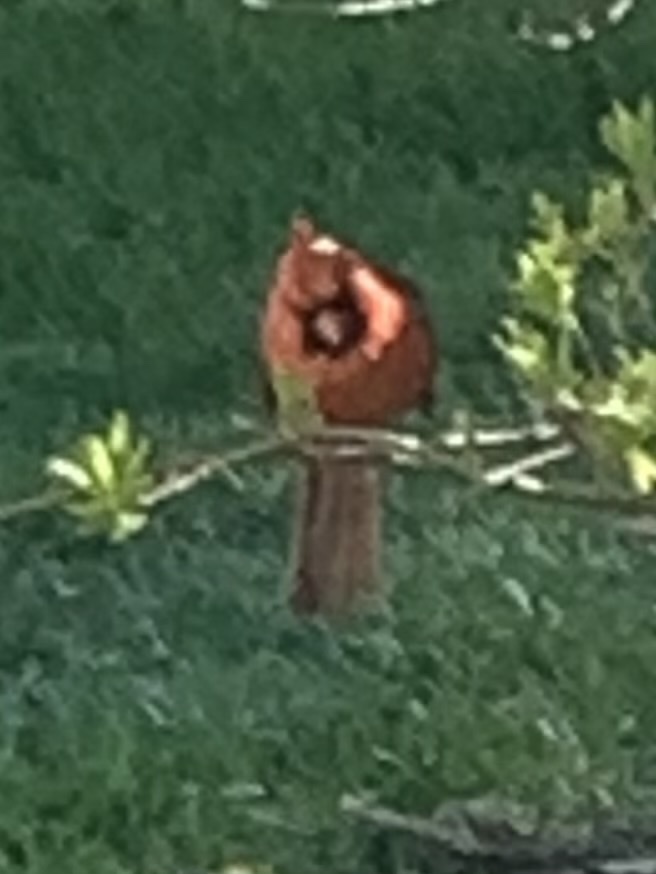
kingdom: Animalia
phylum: Chordata
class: Aves
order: Passeriformes
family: Cardinalidae
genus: Cardinalis
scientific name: Cardinalis cardinalis
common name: Northern cardinal
